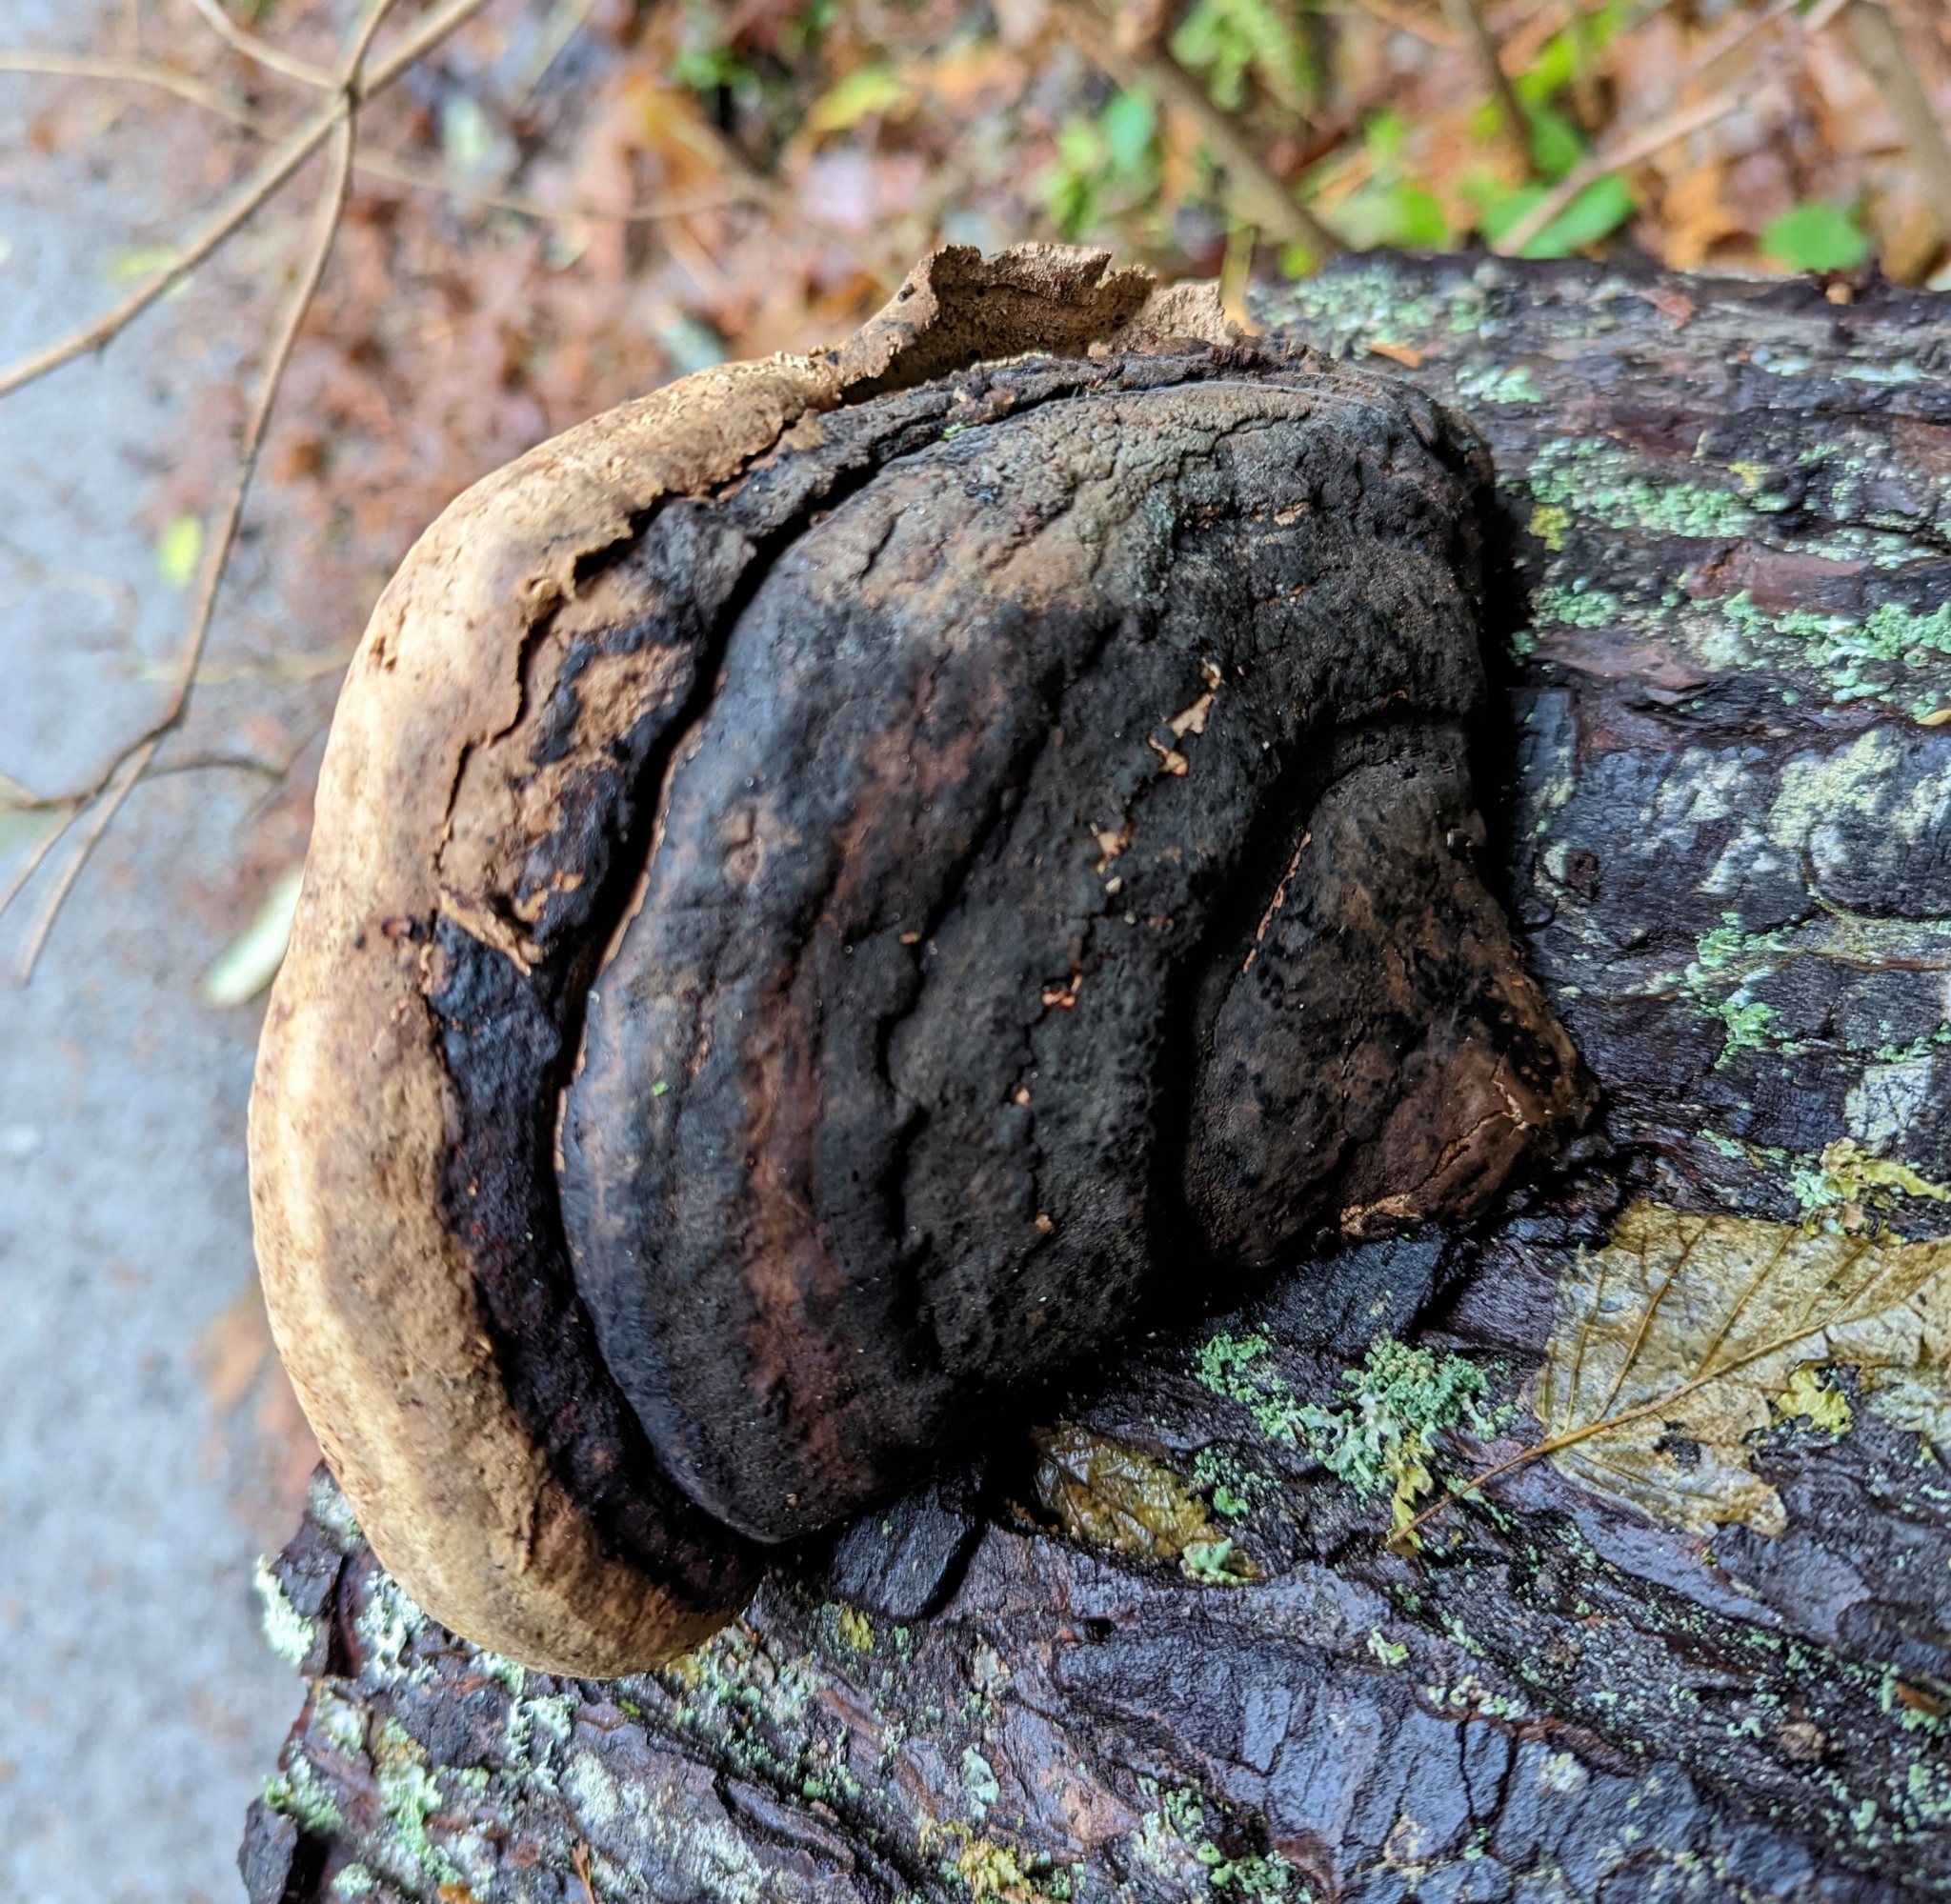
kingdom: Fungi
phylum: Basidiomycota
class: Agaricomycetes
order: Polyporales
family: Fomitopsidaceae
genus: Fomitopsis
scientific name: Fomitopsis mounceae
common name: Northern red belt
